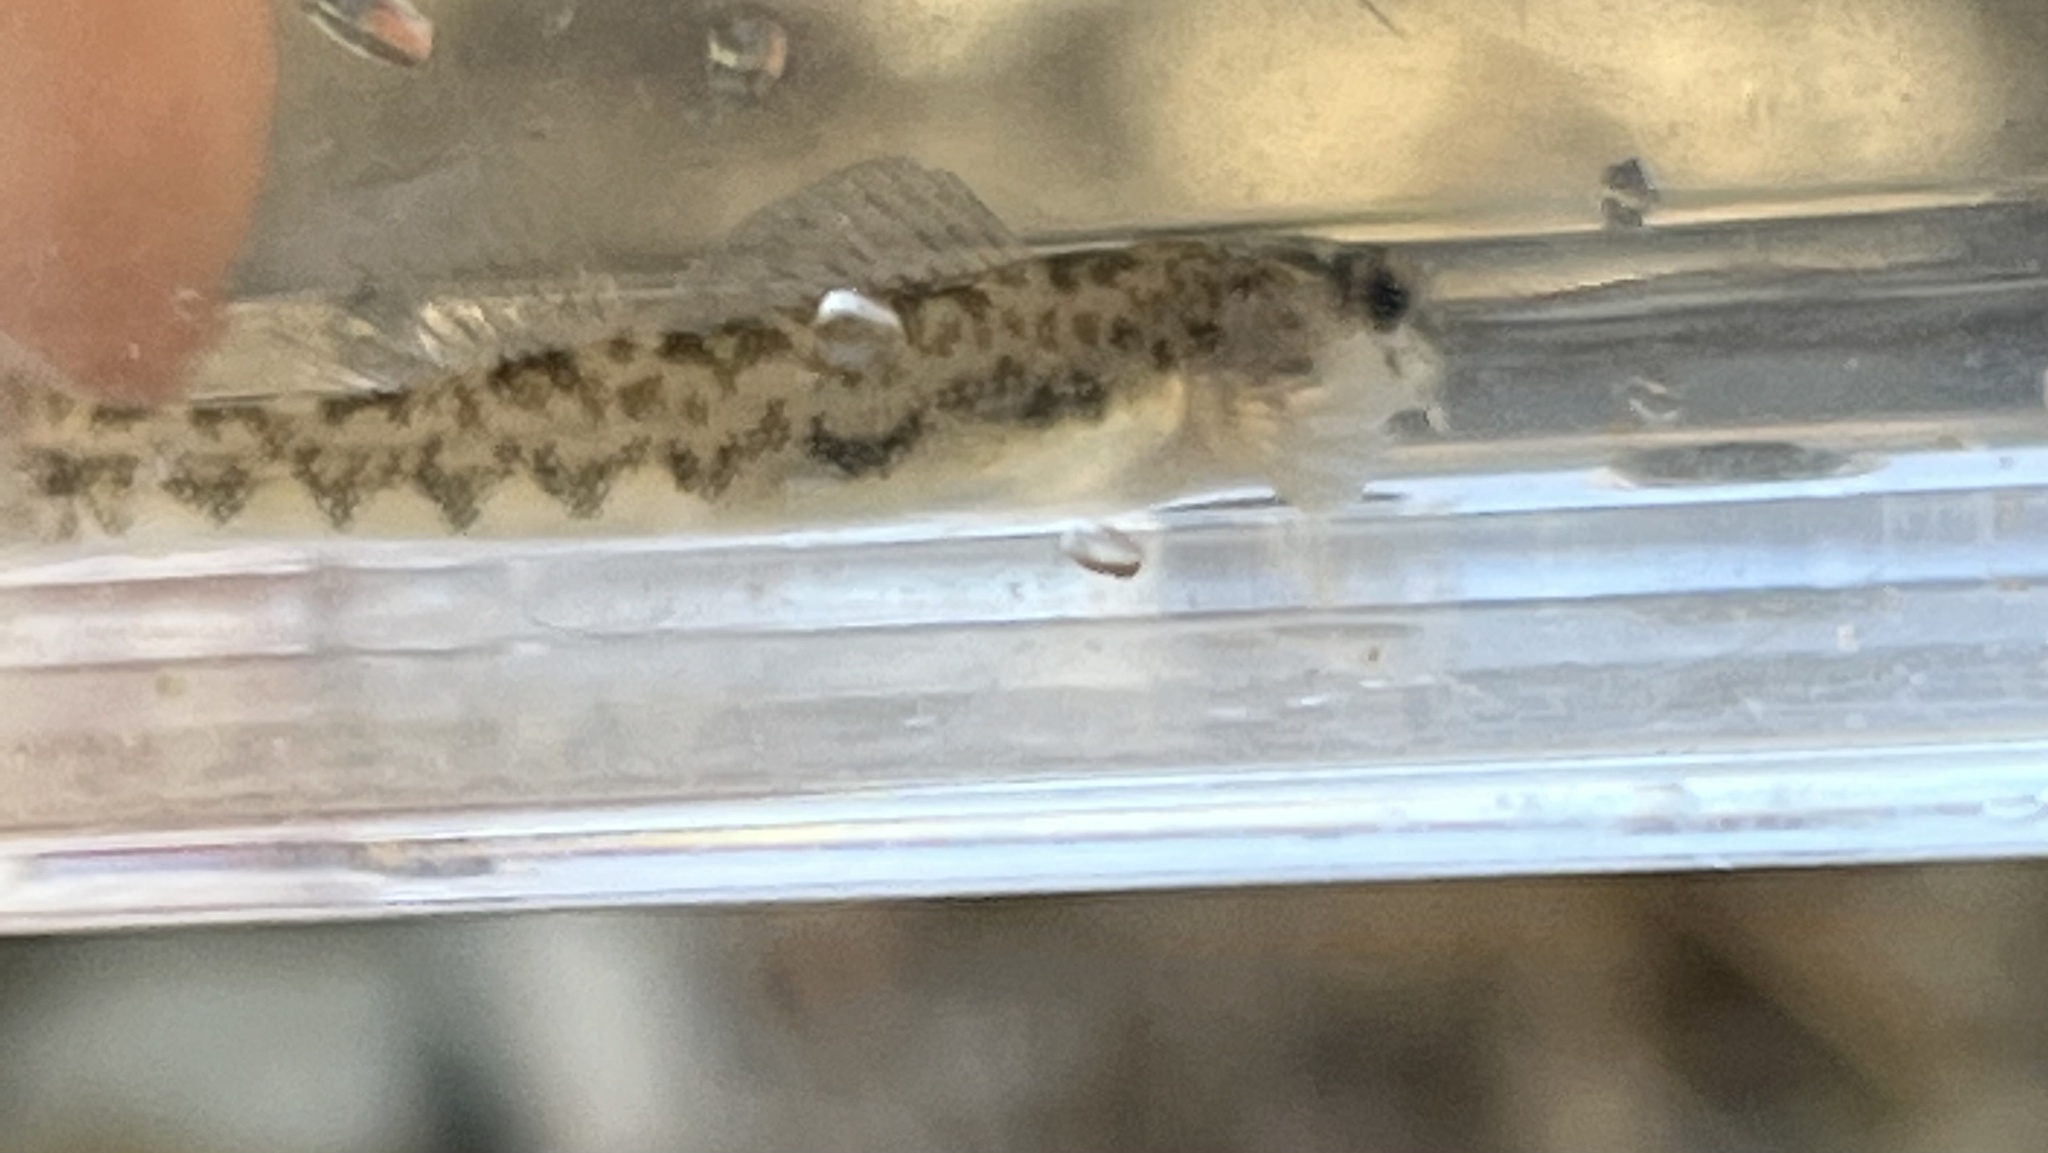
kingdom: Animalia
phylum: Chordata
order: Perciformes
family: Percidae
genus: Etheostoma
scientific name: Etheostoma blennioides
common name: Greenside darter
